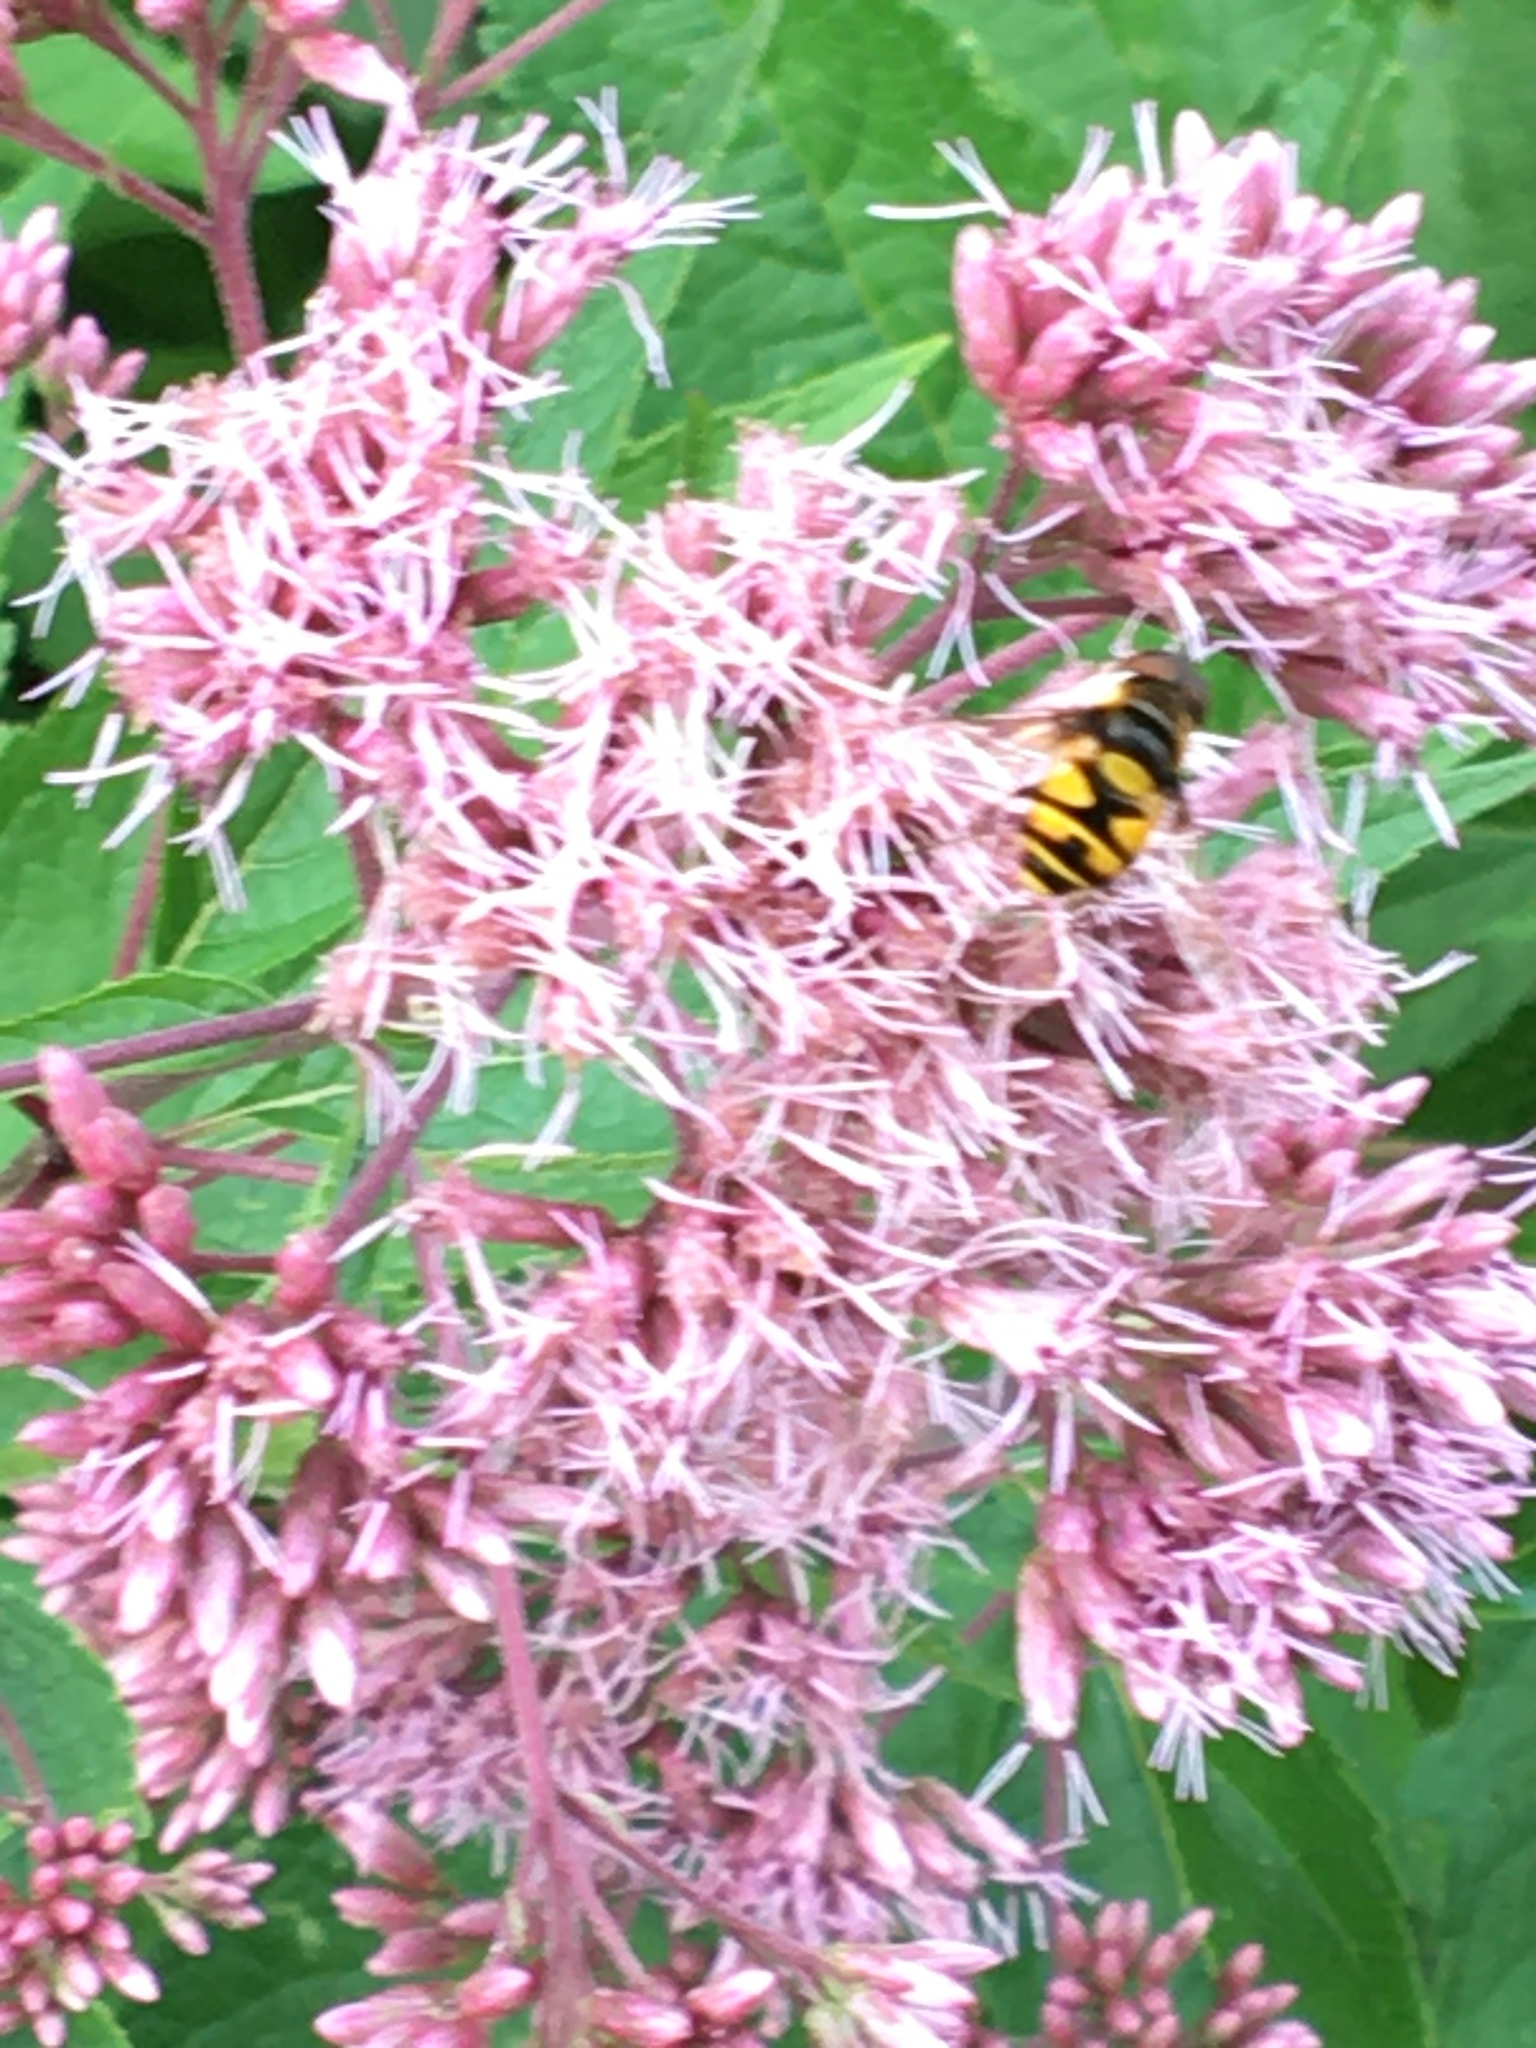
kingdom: Animalia
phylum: Arthropoda
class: Insecta
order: Diptera
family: Syrphidae
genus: Eristalis
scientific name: Eristalis transversa
